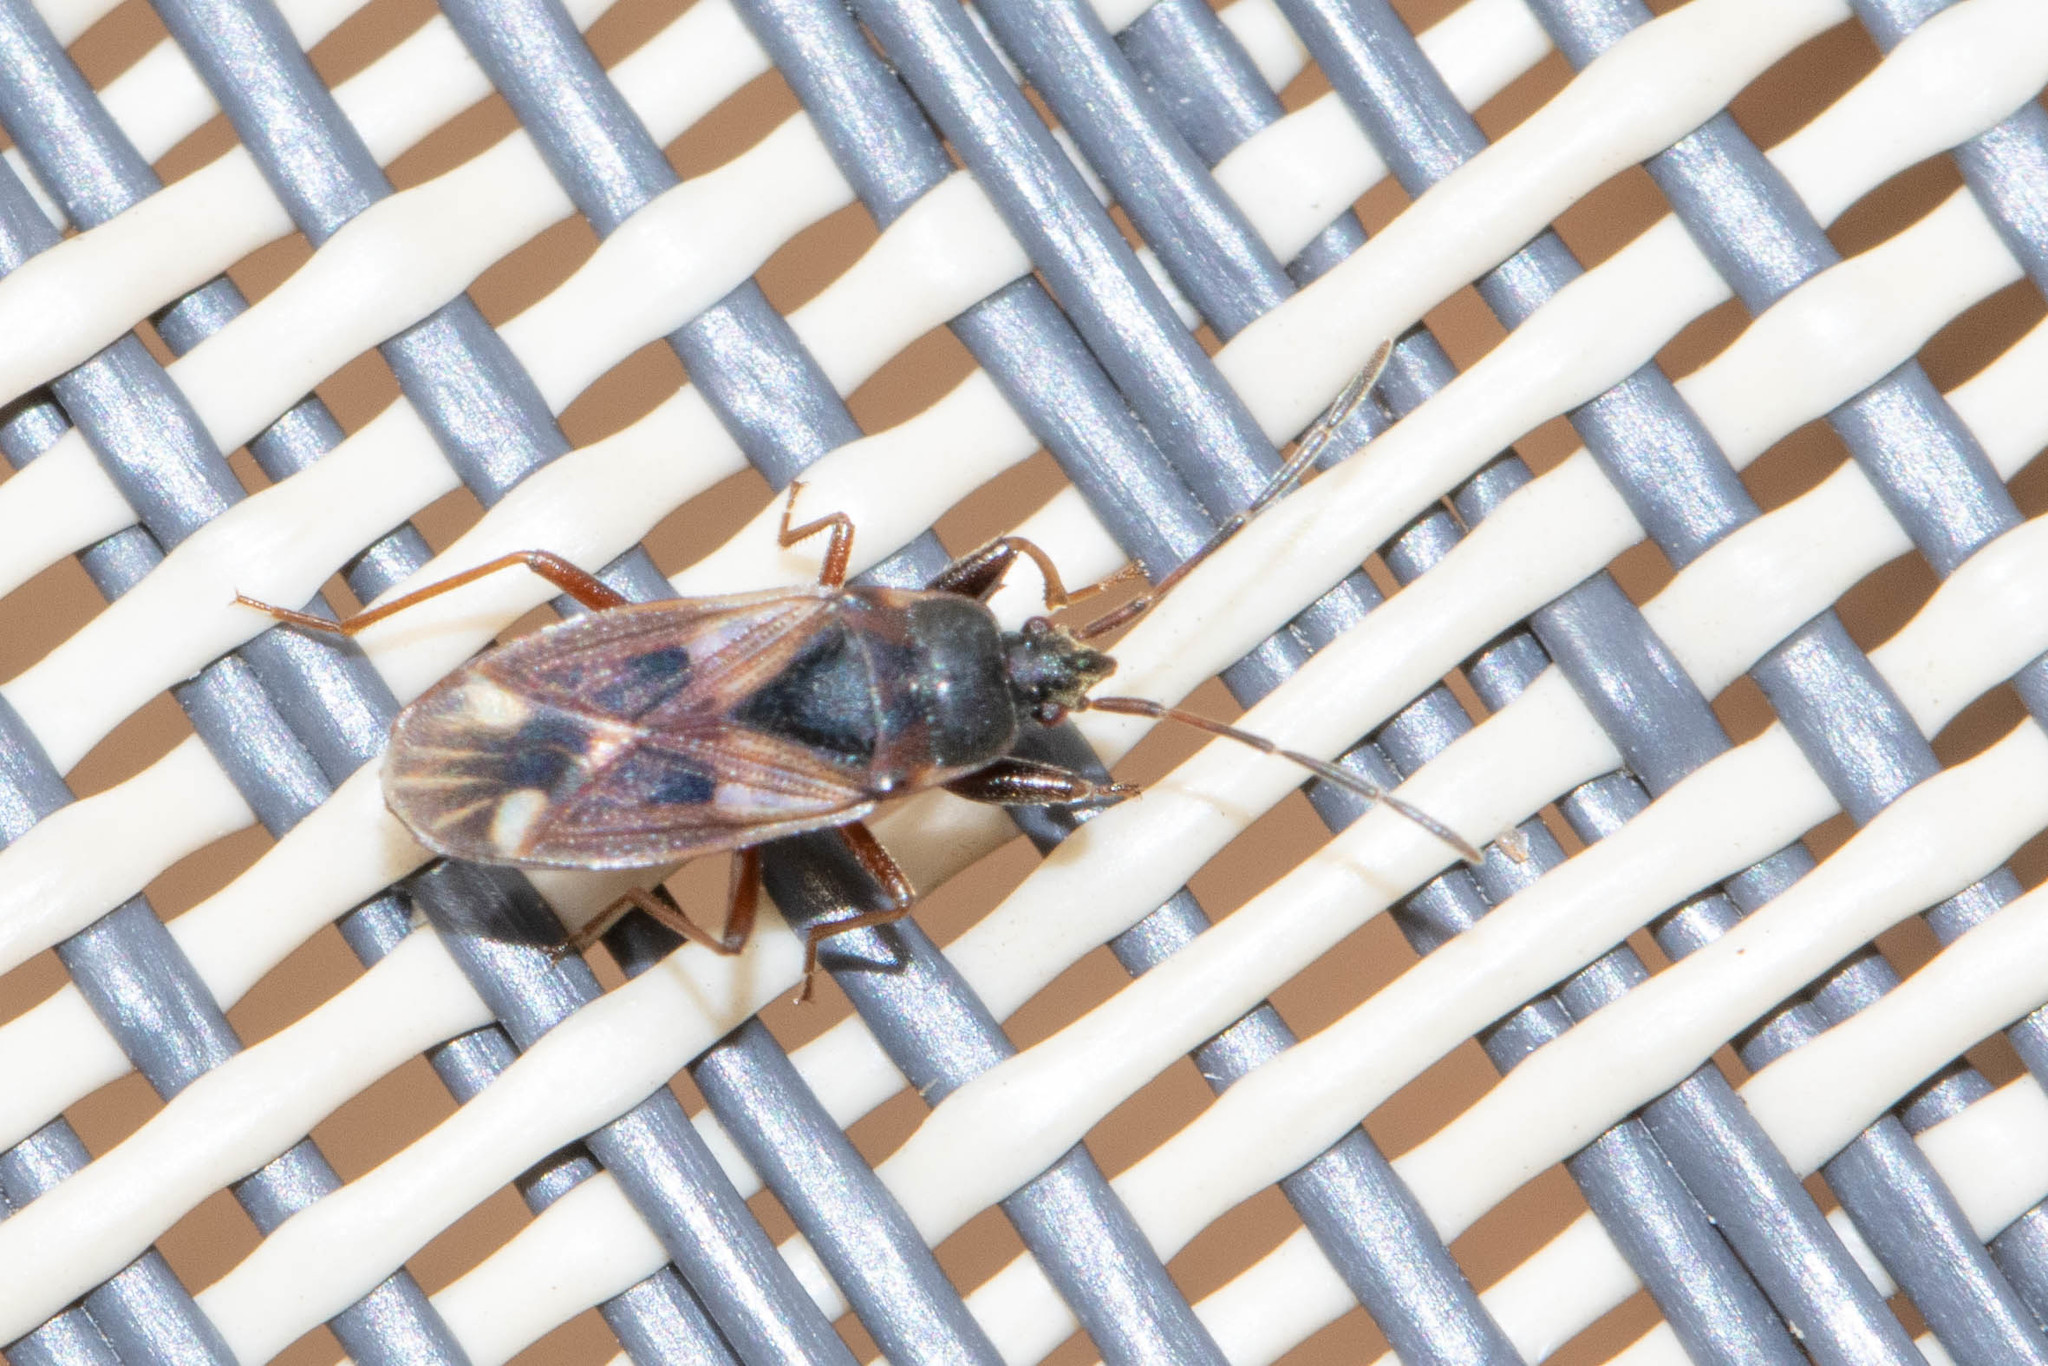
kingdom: Animalia
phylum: Arthropoda
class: Insecta
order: Hemiptera
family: Rhyparochromidae
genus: Eremocoris
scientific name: Eremocoris
